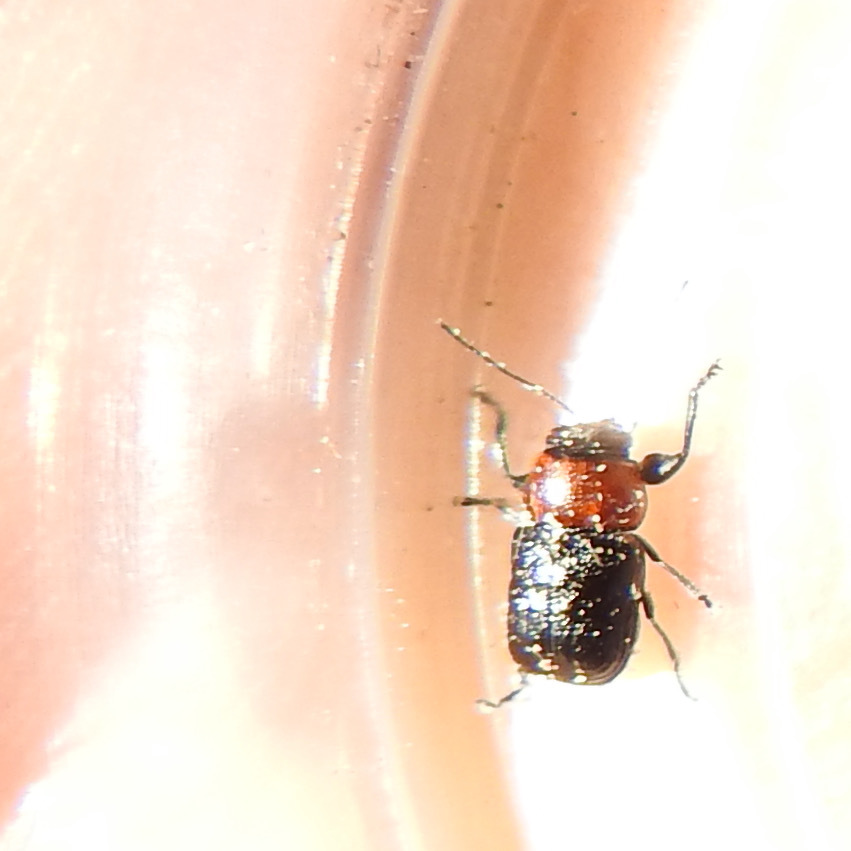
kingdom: Animalia
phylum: Arthropoda
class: Insecta
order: Coleoptera
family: Chrysomelidae
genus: Pachybrachis
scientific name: Pachybrachis hybridus
